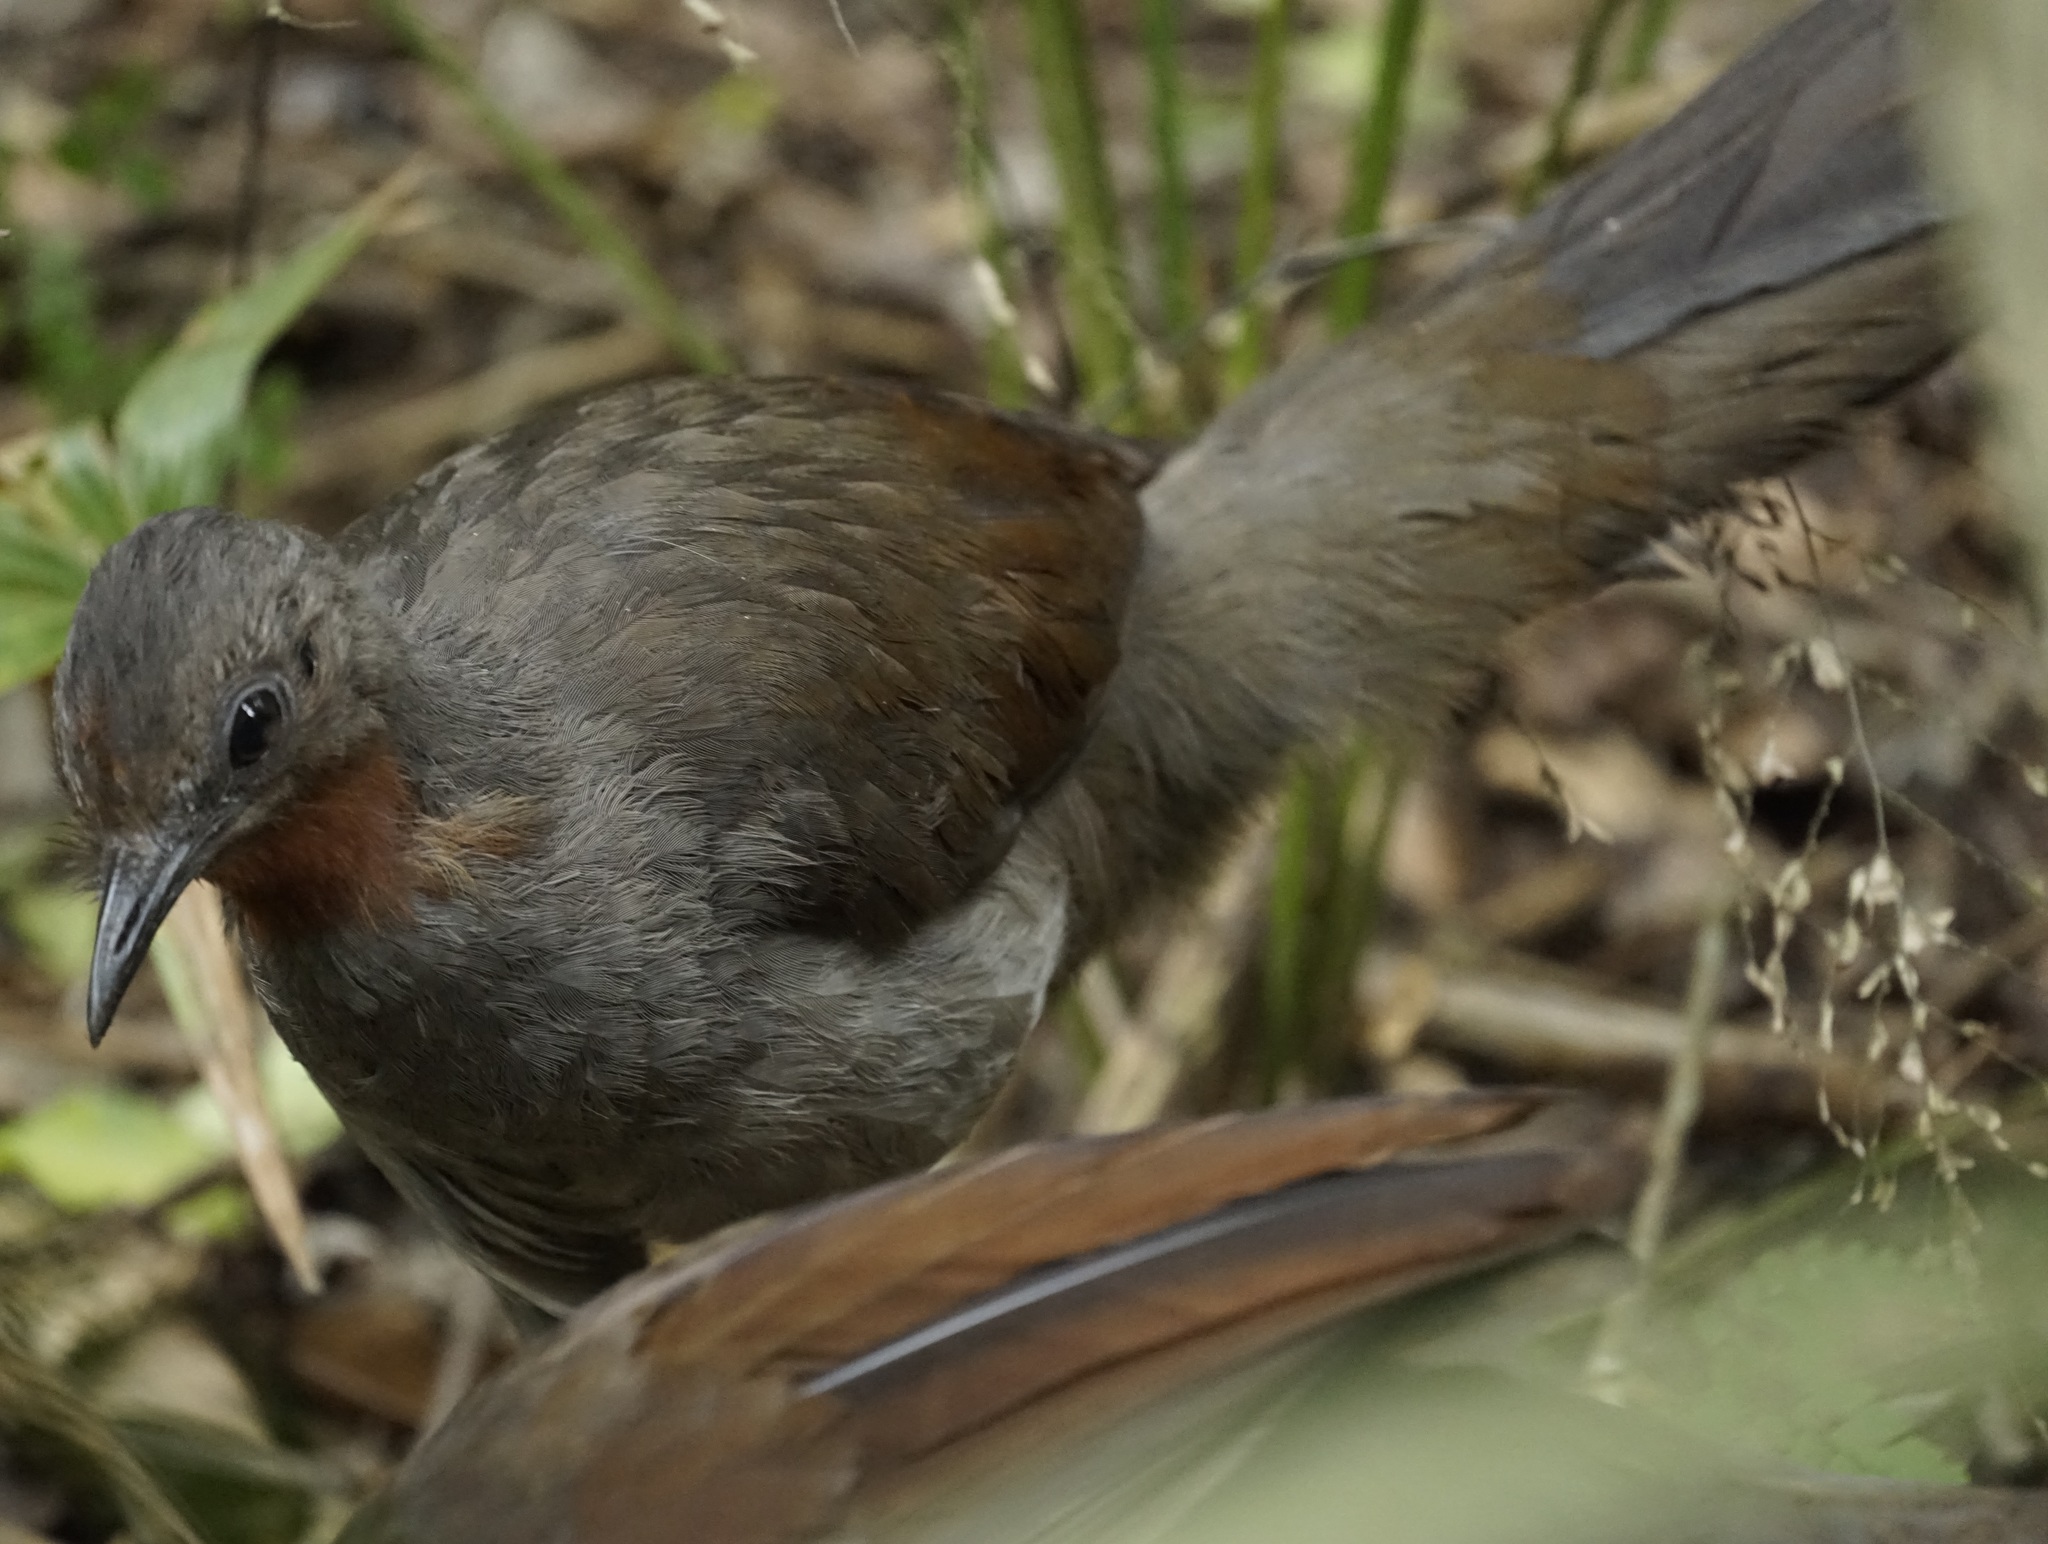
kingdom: Animalia
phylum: Chordata
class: Aves
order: Passeriformes
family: Menuridae
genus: Menura
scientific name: Menura novaehollandiae
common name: Superb lyrebird
